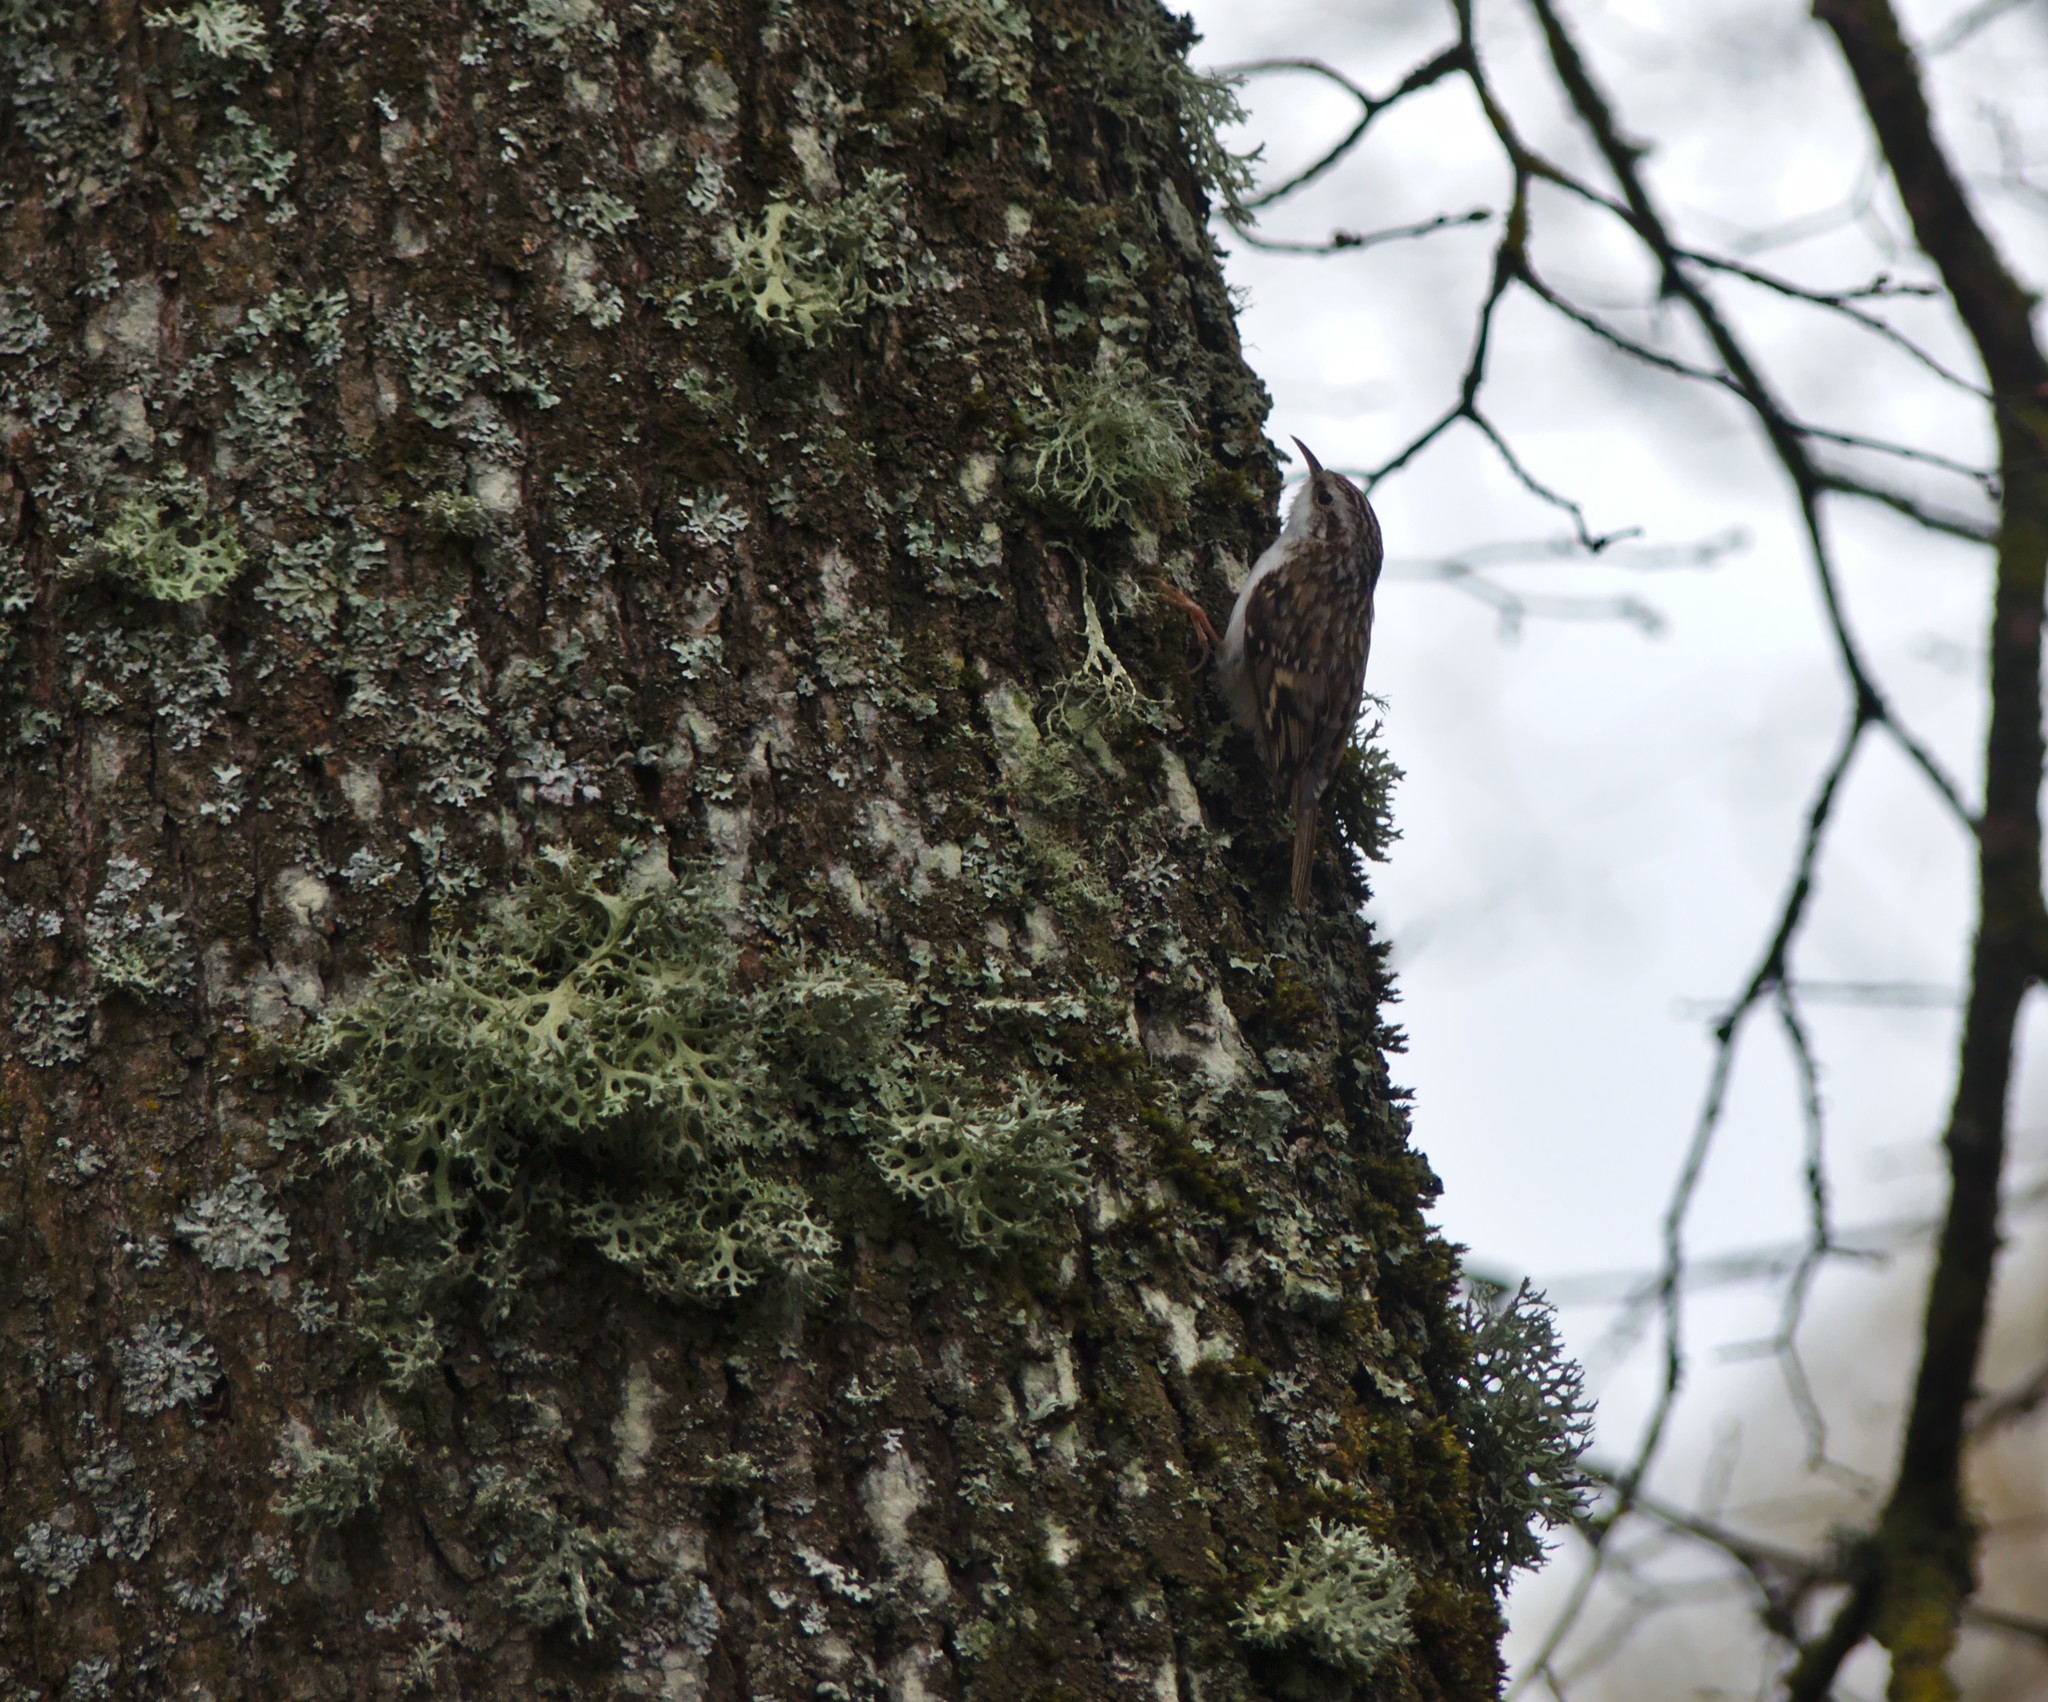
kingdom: Animalia
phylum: Chordata
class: Aves
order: Passeriformes
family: Certhiidae
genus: Certhia
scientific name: Certhia familiaris
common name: Eurasian treecreeper
